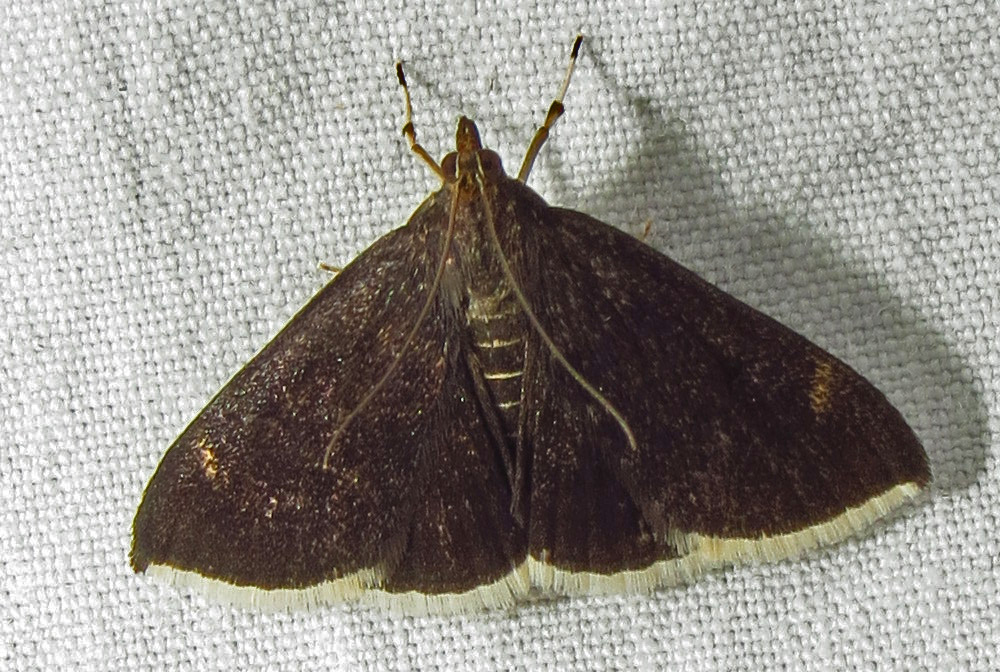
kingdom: Animalia
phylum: Arthropoda
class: Insecta
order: Lepidoptera
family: Crambidae
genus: Pyrausta
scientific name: Pyrausta niveicilialis
